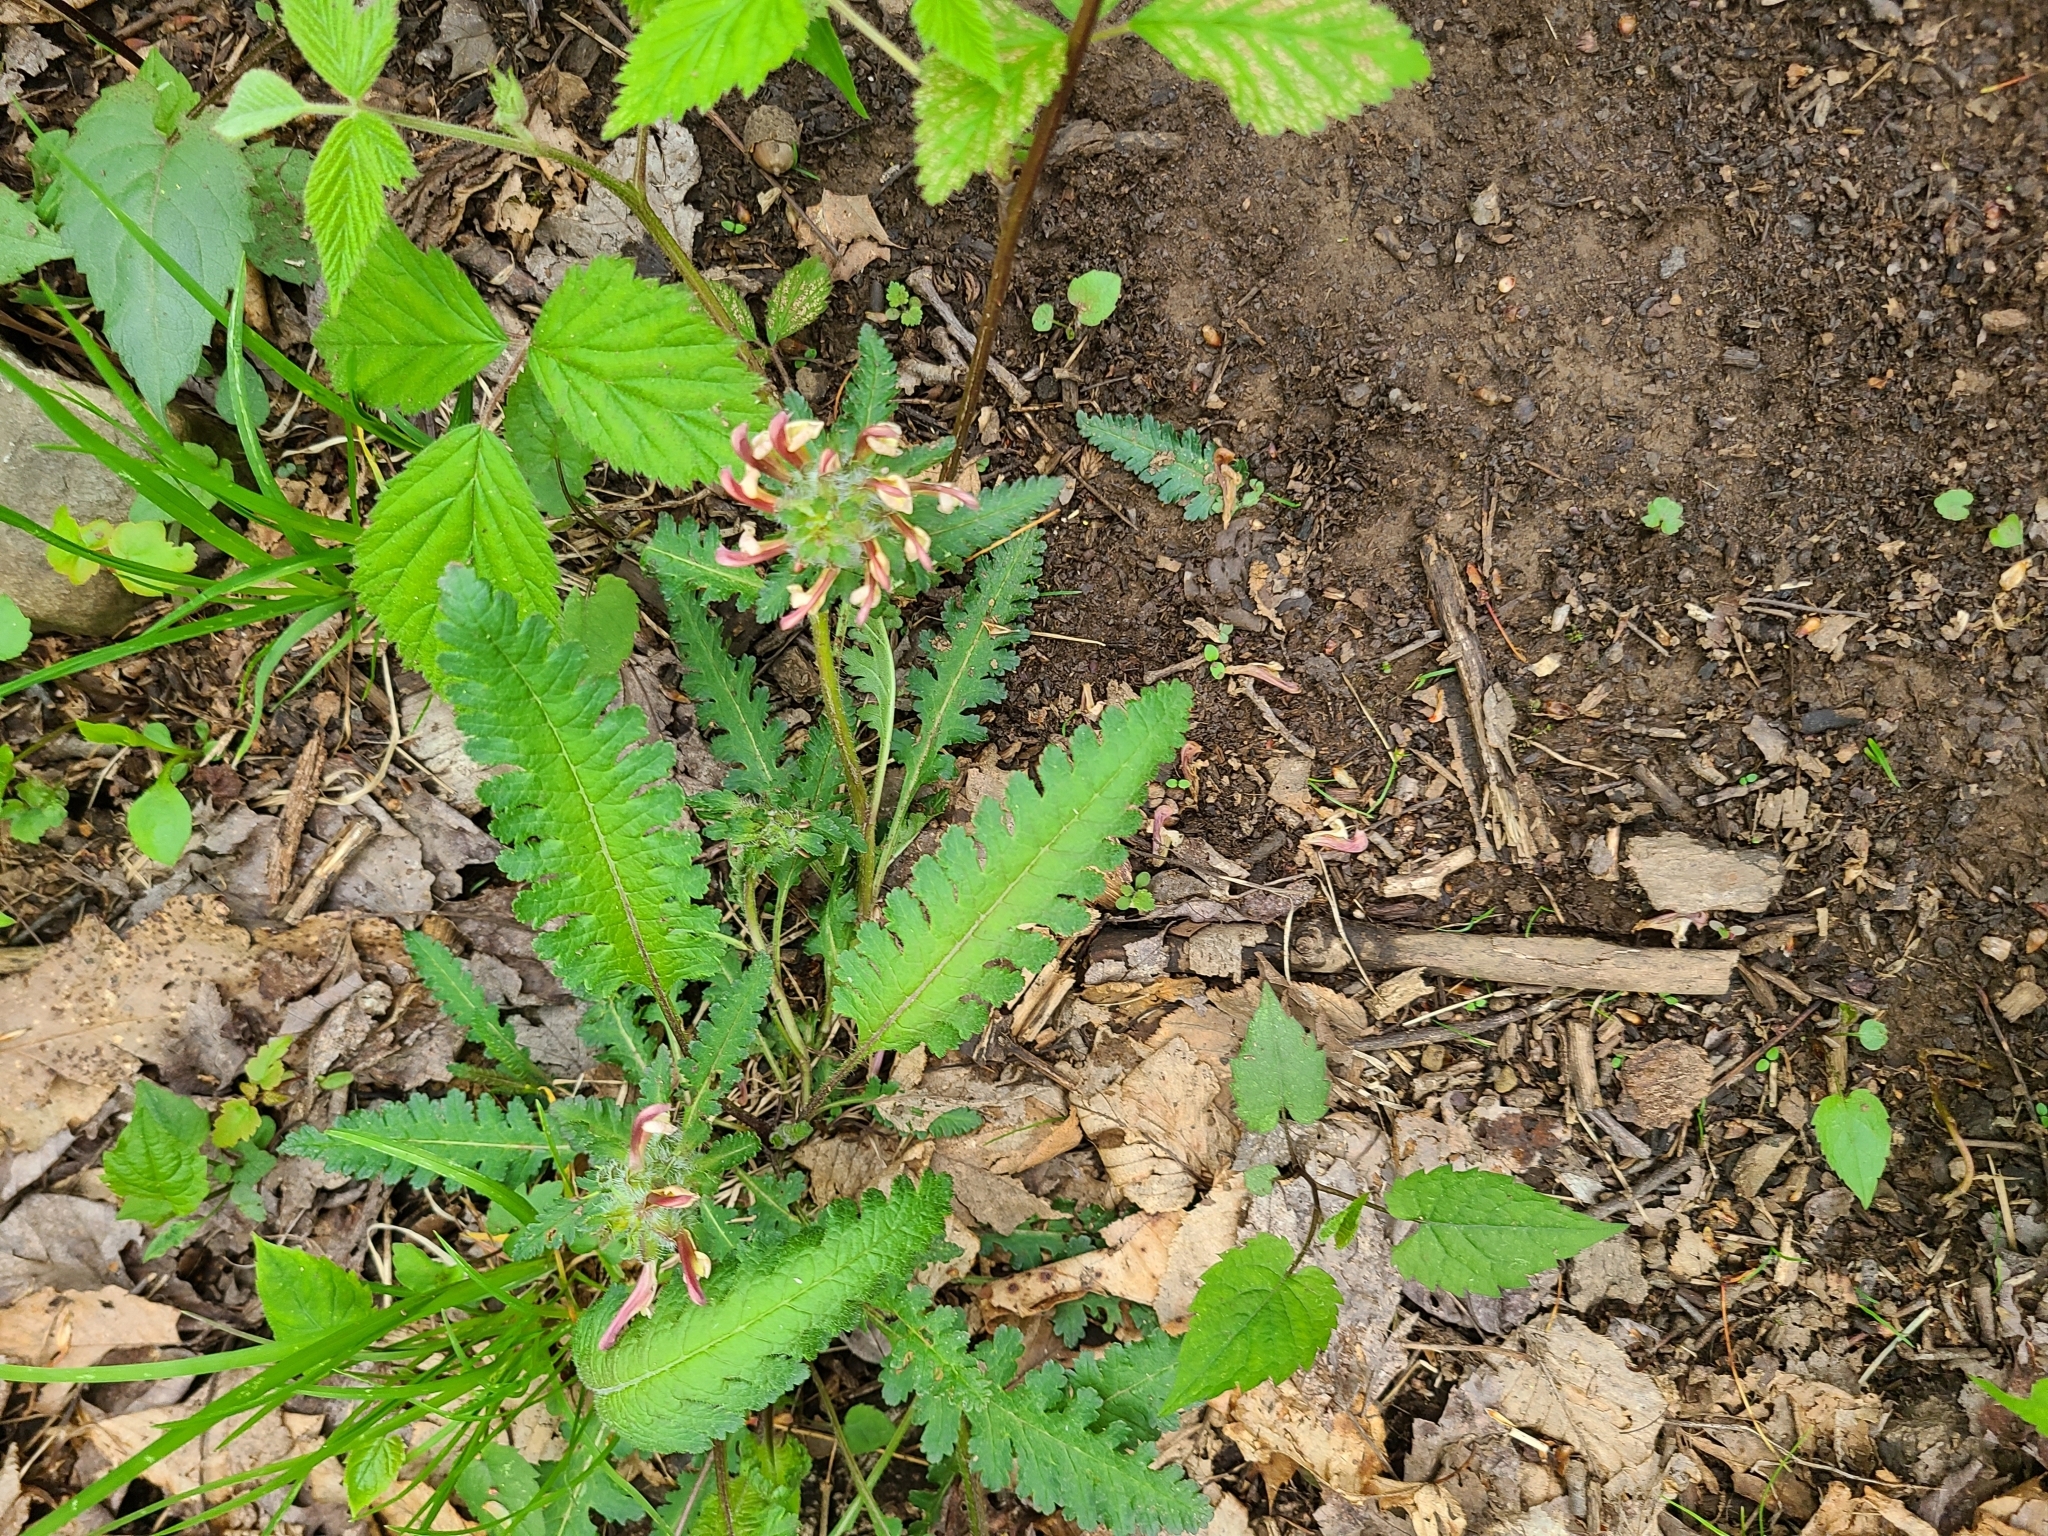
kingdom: Plantae
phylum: Tracheophyta
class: Magnoliopsida
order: Lamiales
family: Orobanchaceae
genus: Pedicularis
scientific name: Pedicularis canadensis
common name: Early lousewort
